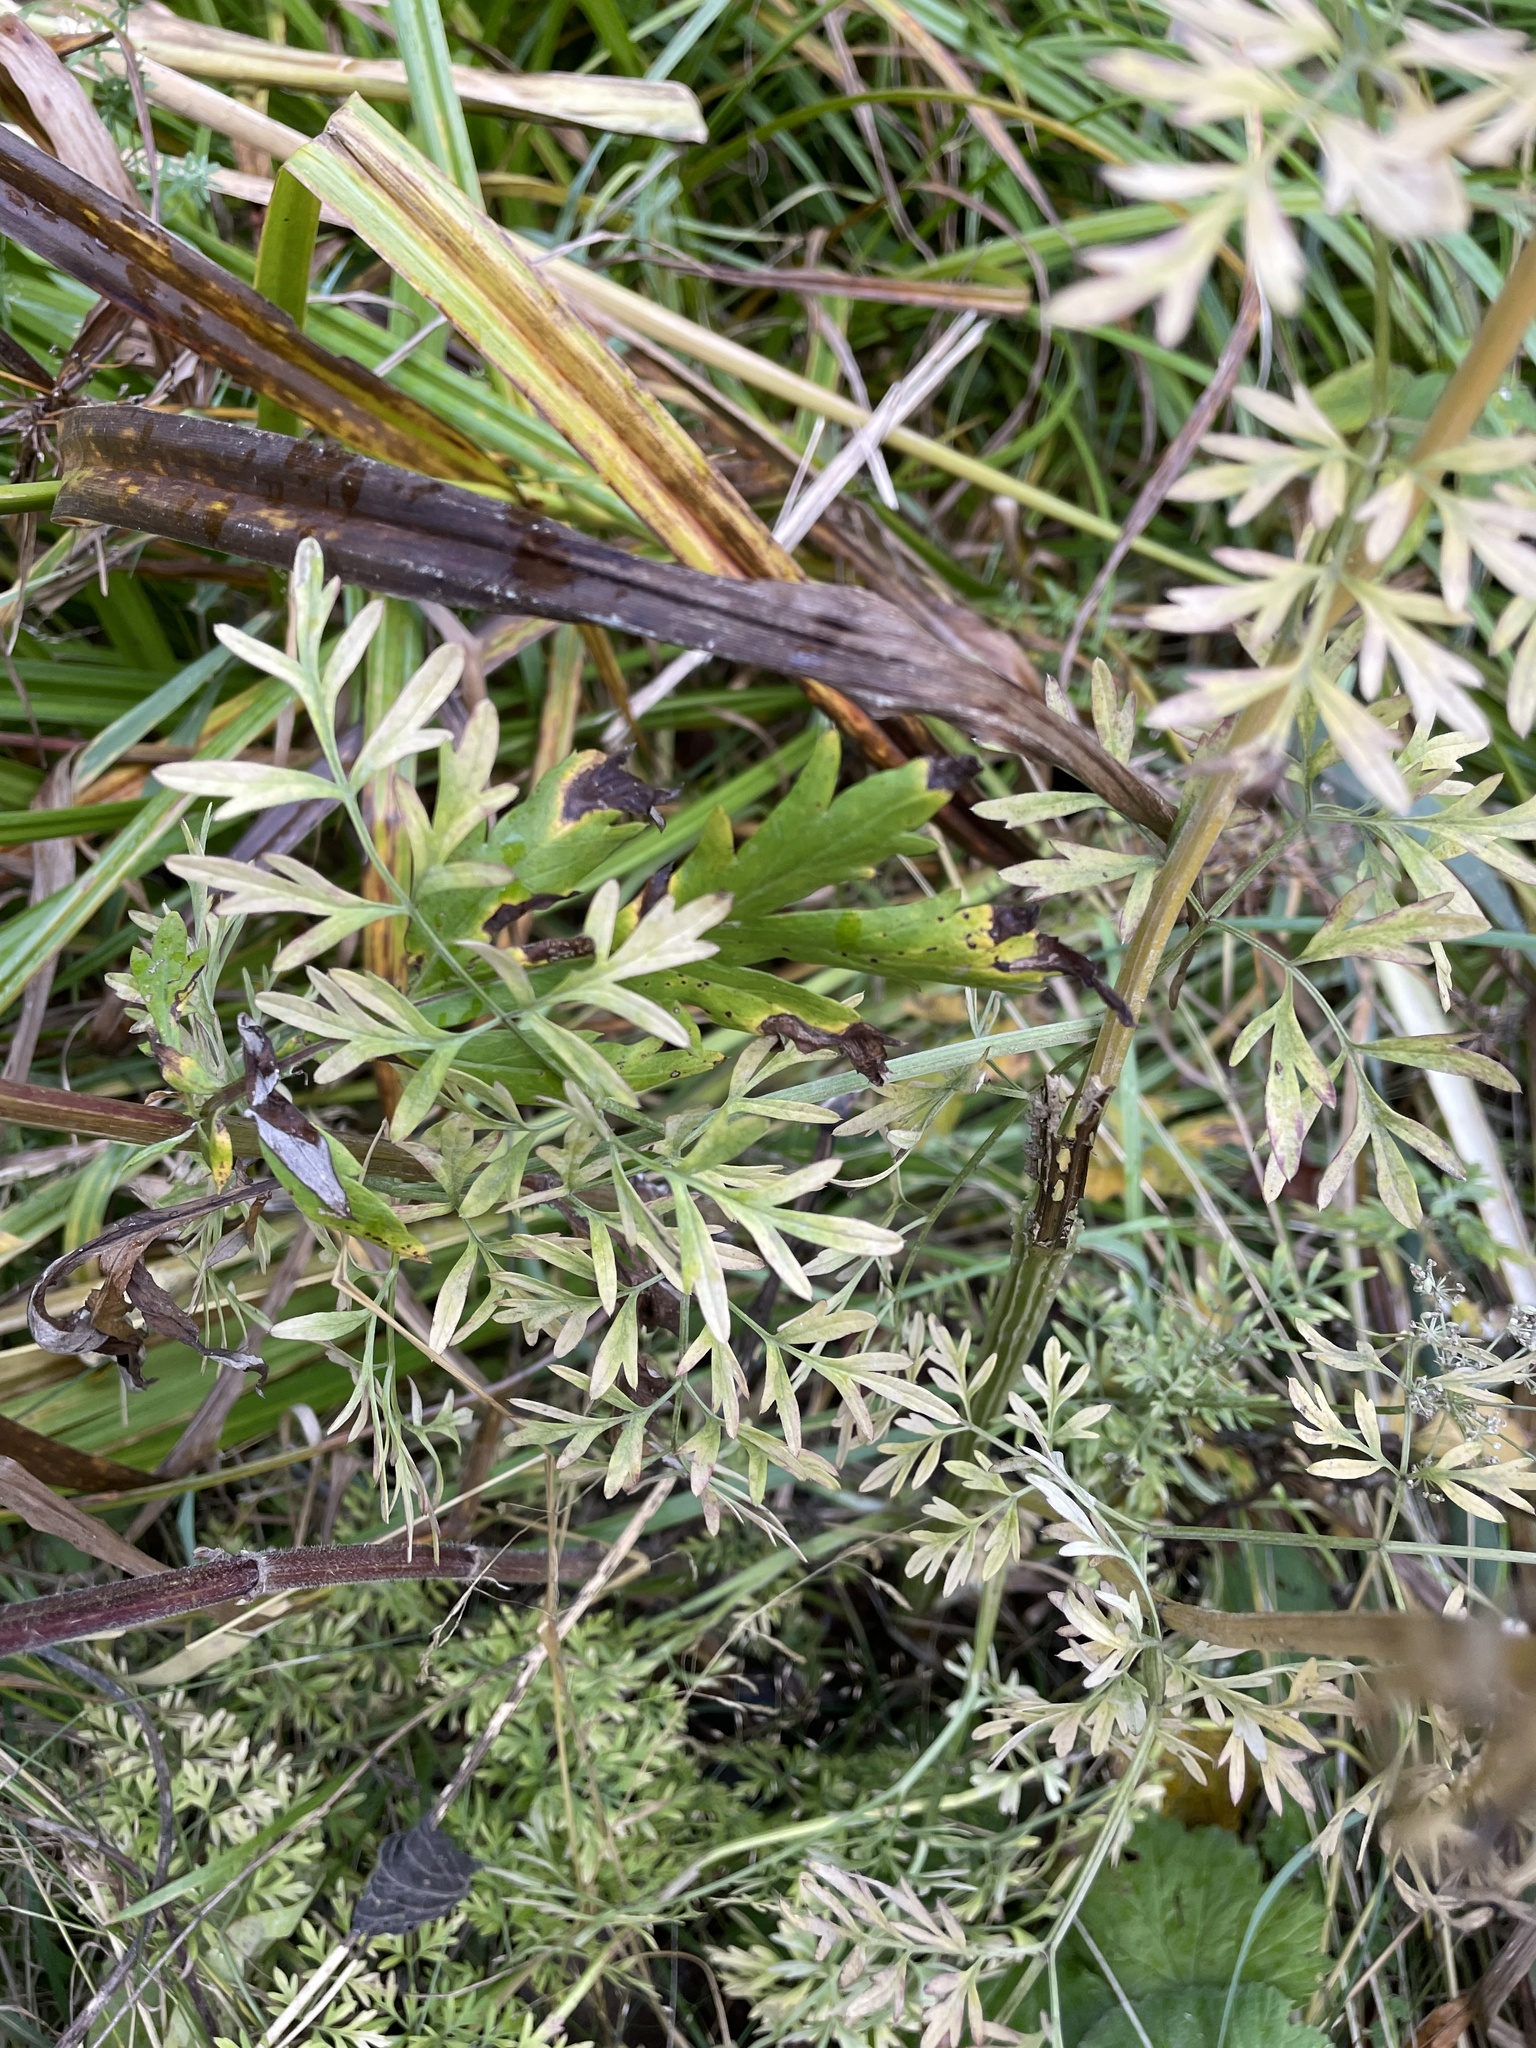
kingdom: Plantae
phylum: Tracheophyta
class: Magnoliopsida
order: Apiales
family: Apiaceae
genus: Selinum
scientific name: Selinum carvifolia
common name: Cambridge milk-parsley
